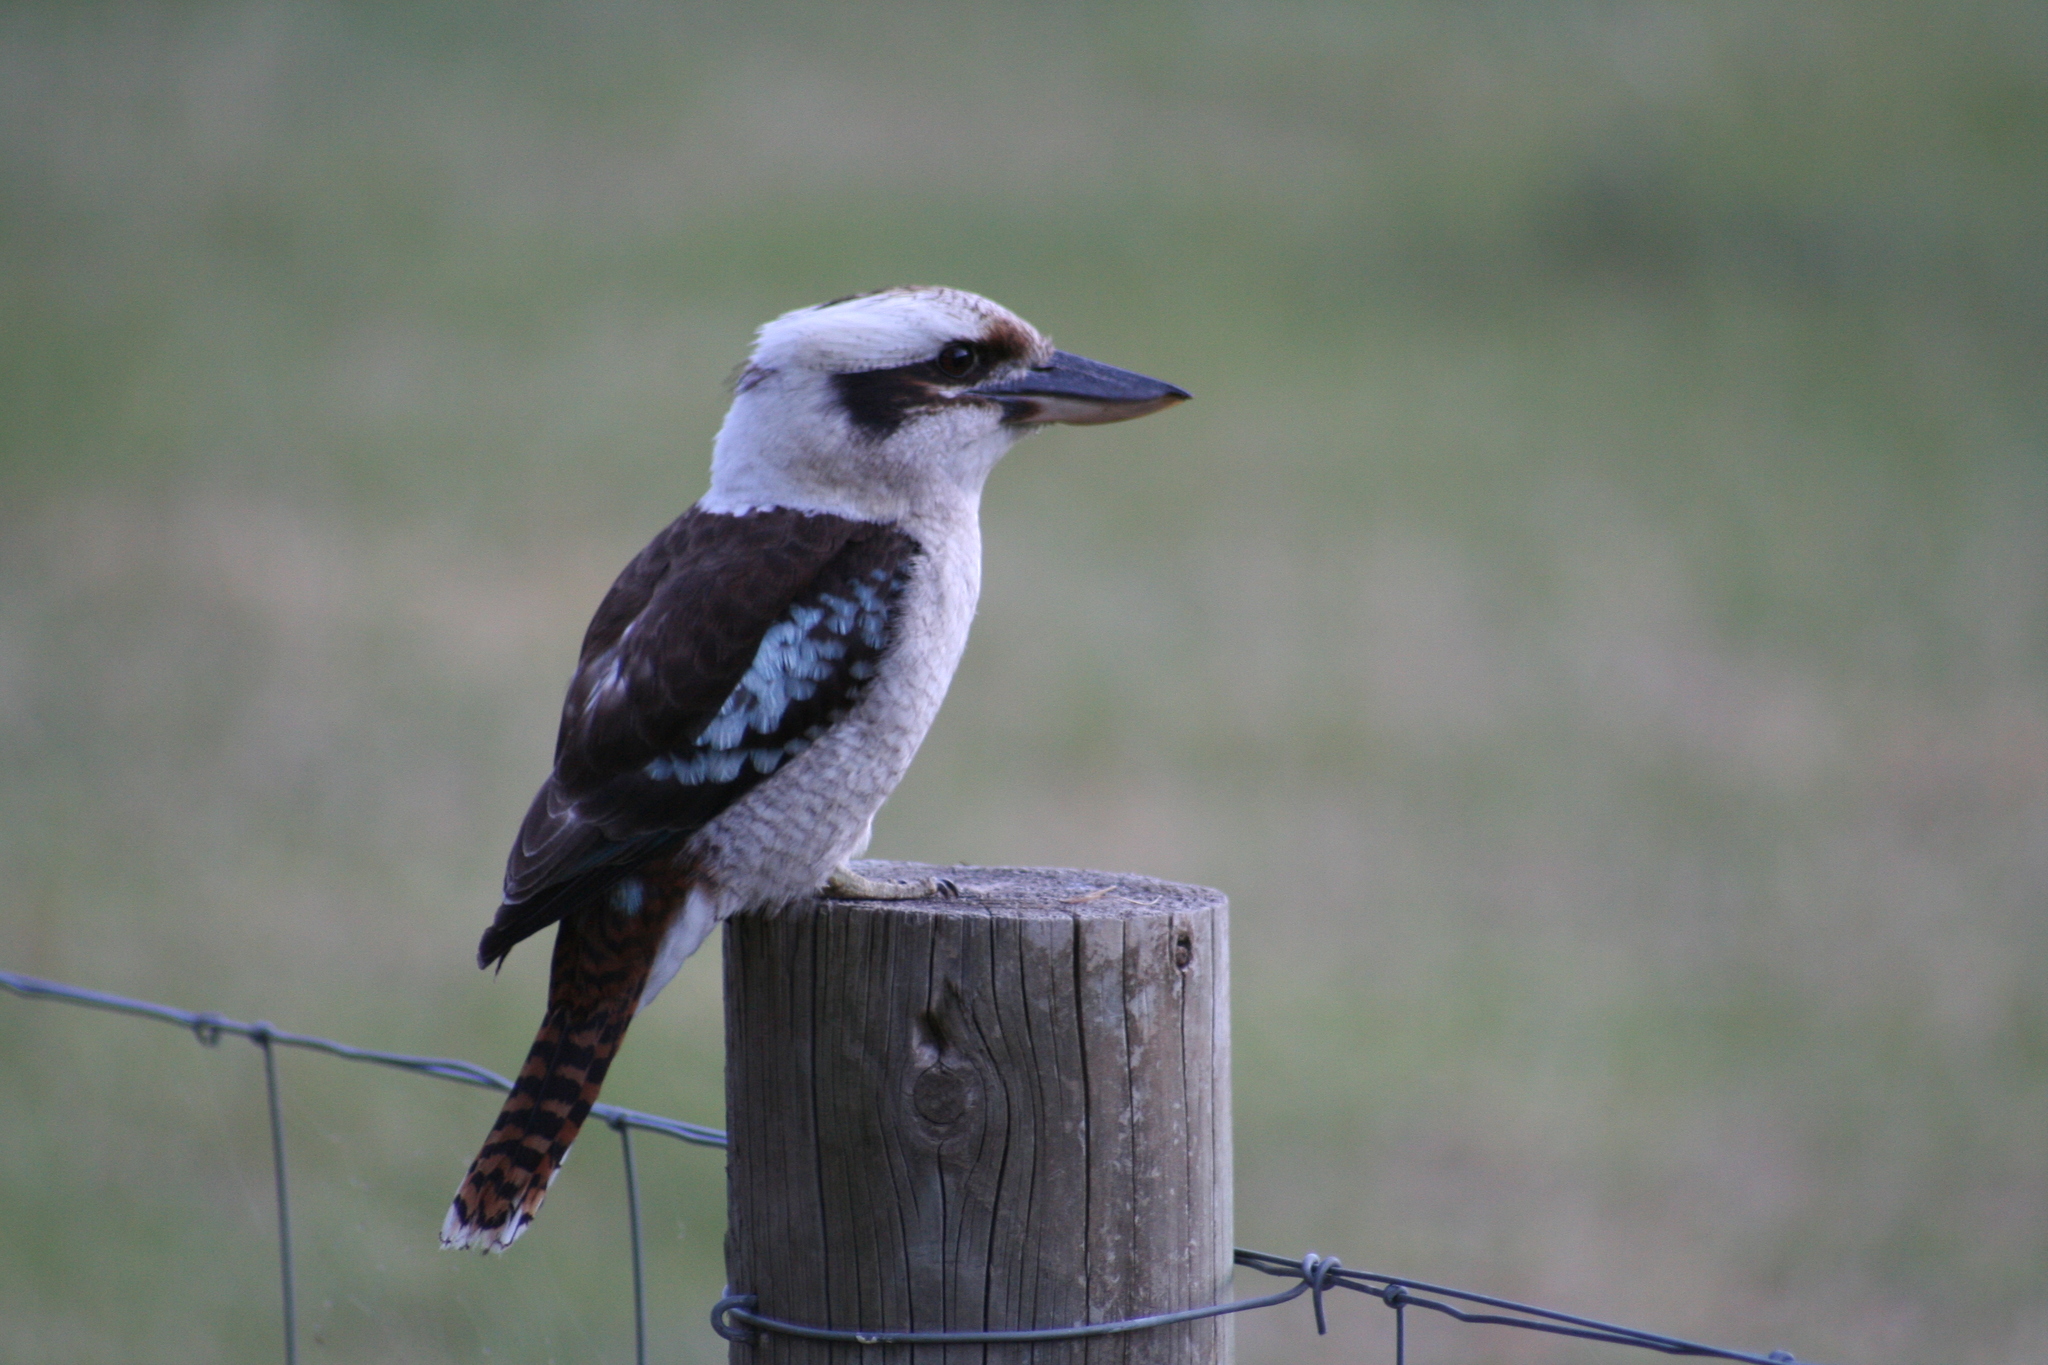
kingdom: Animalia
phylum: Chordata
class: Aves
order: Coraciiformes
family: Alcedinidae
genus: Dacelo
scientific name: Dacelo novaeguineae
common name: Laughing kookaburra
